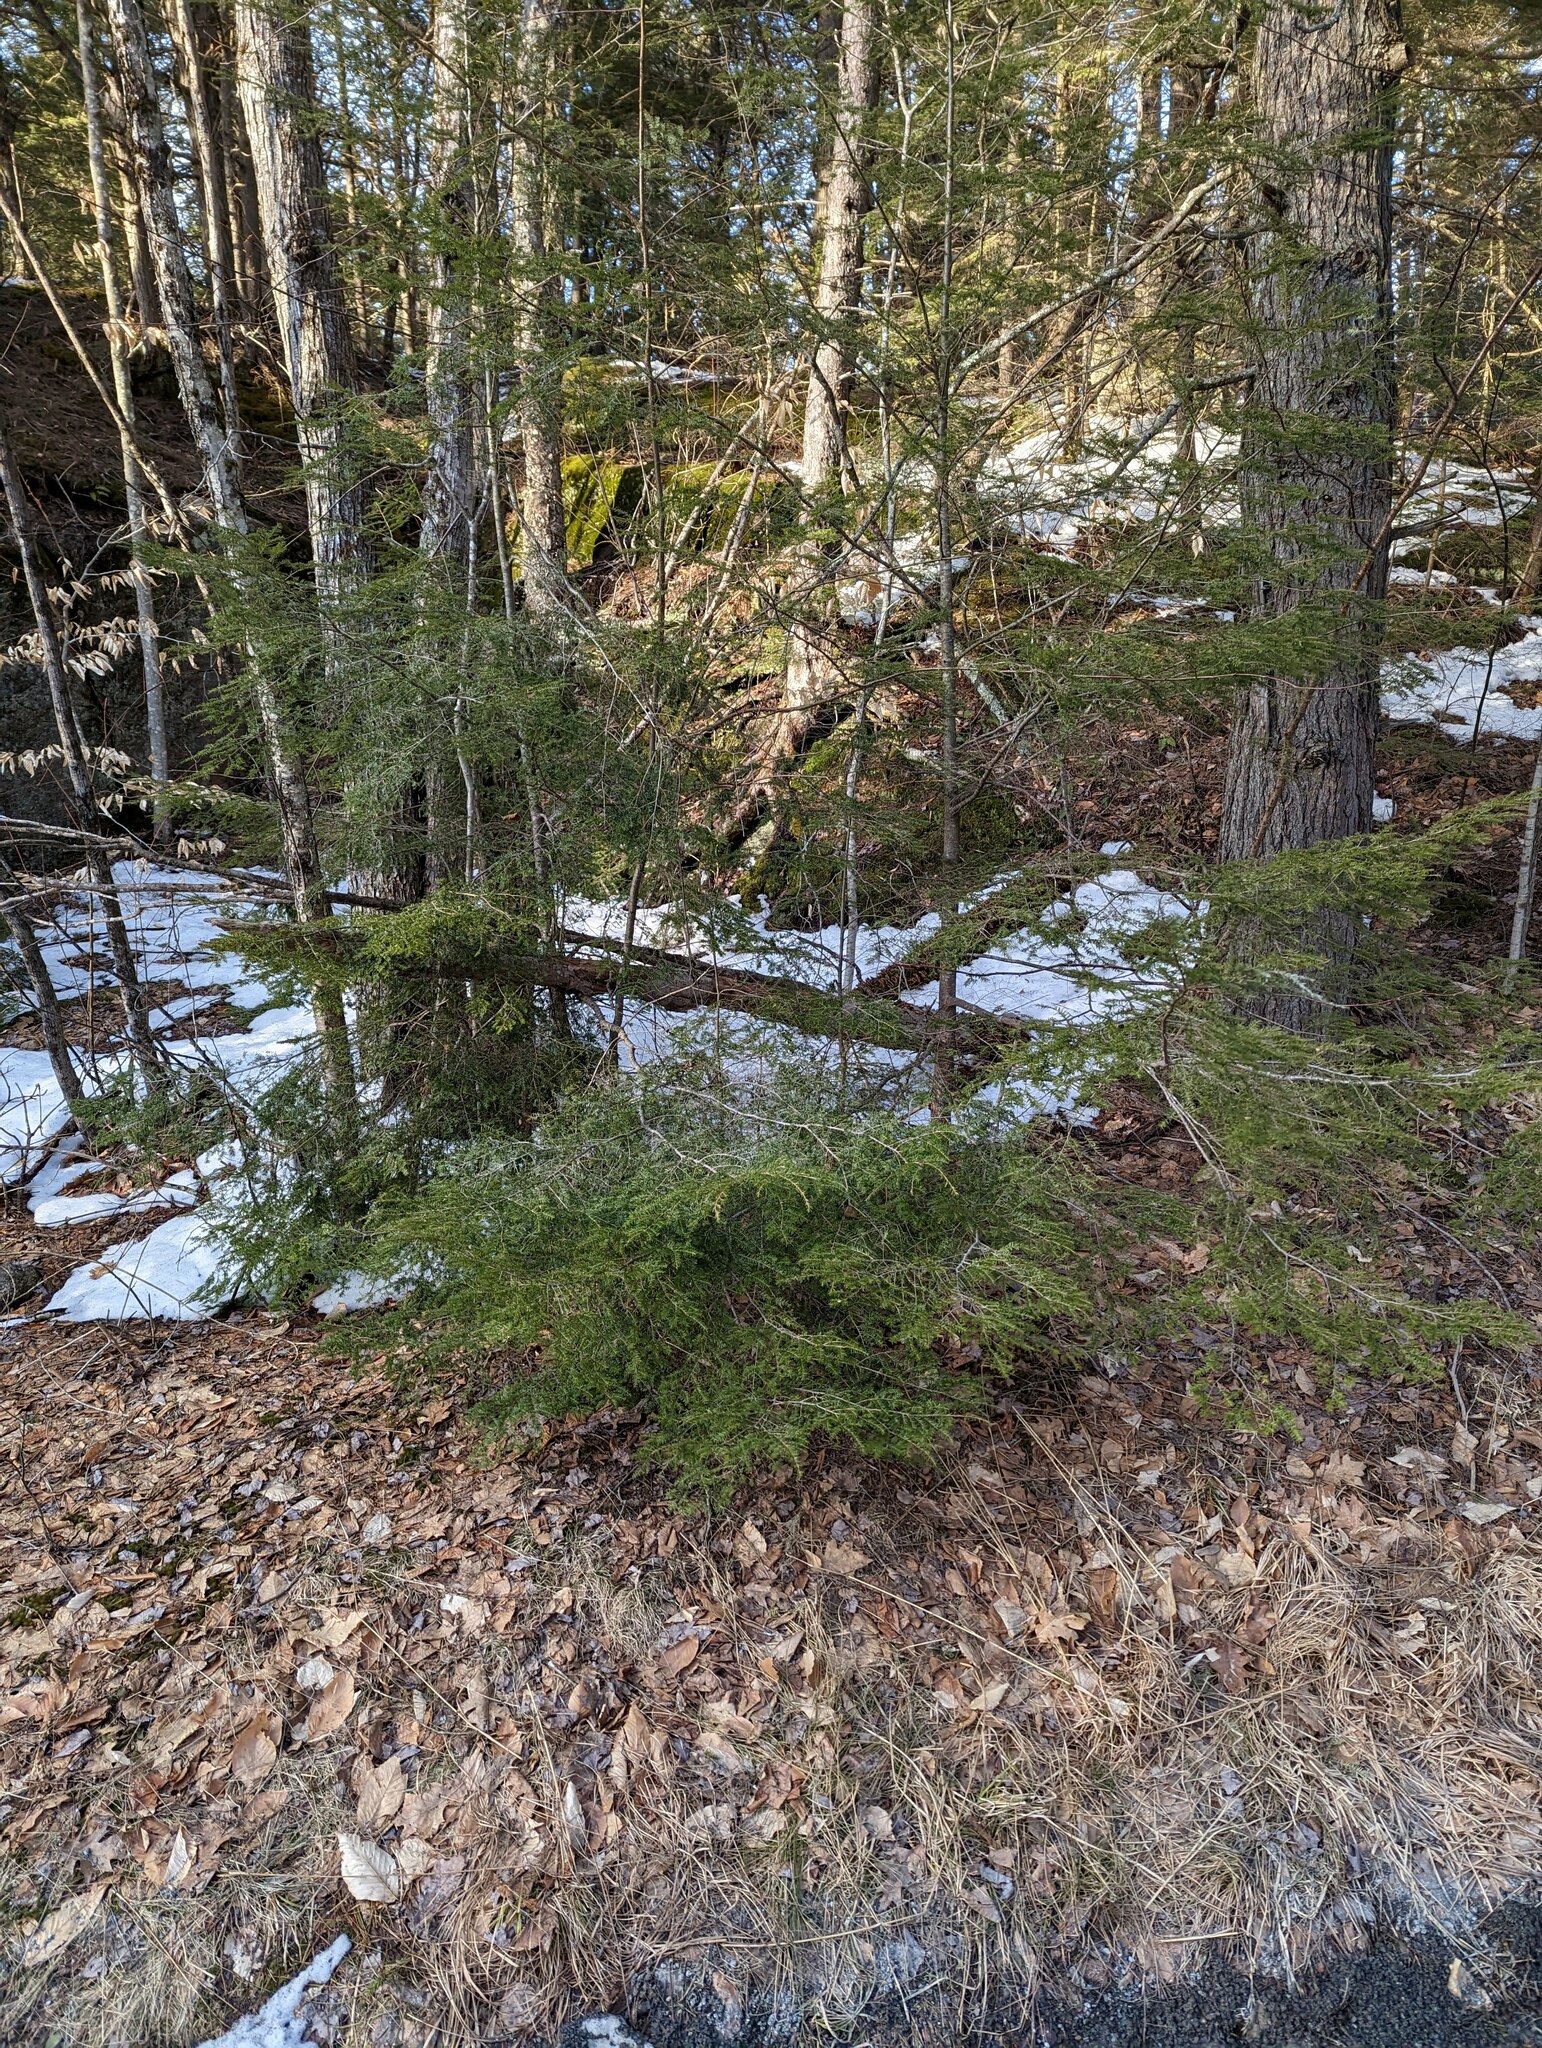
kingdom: Plantae
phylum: Tracheophyta
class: Pinopsida
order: Pinales
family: Pinaceae
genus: Tsuga
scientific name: Tsuga canadensis
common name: Eastern hemlock
